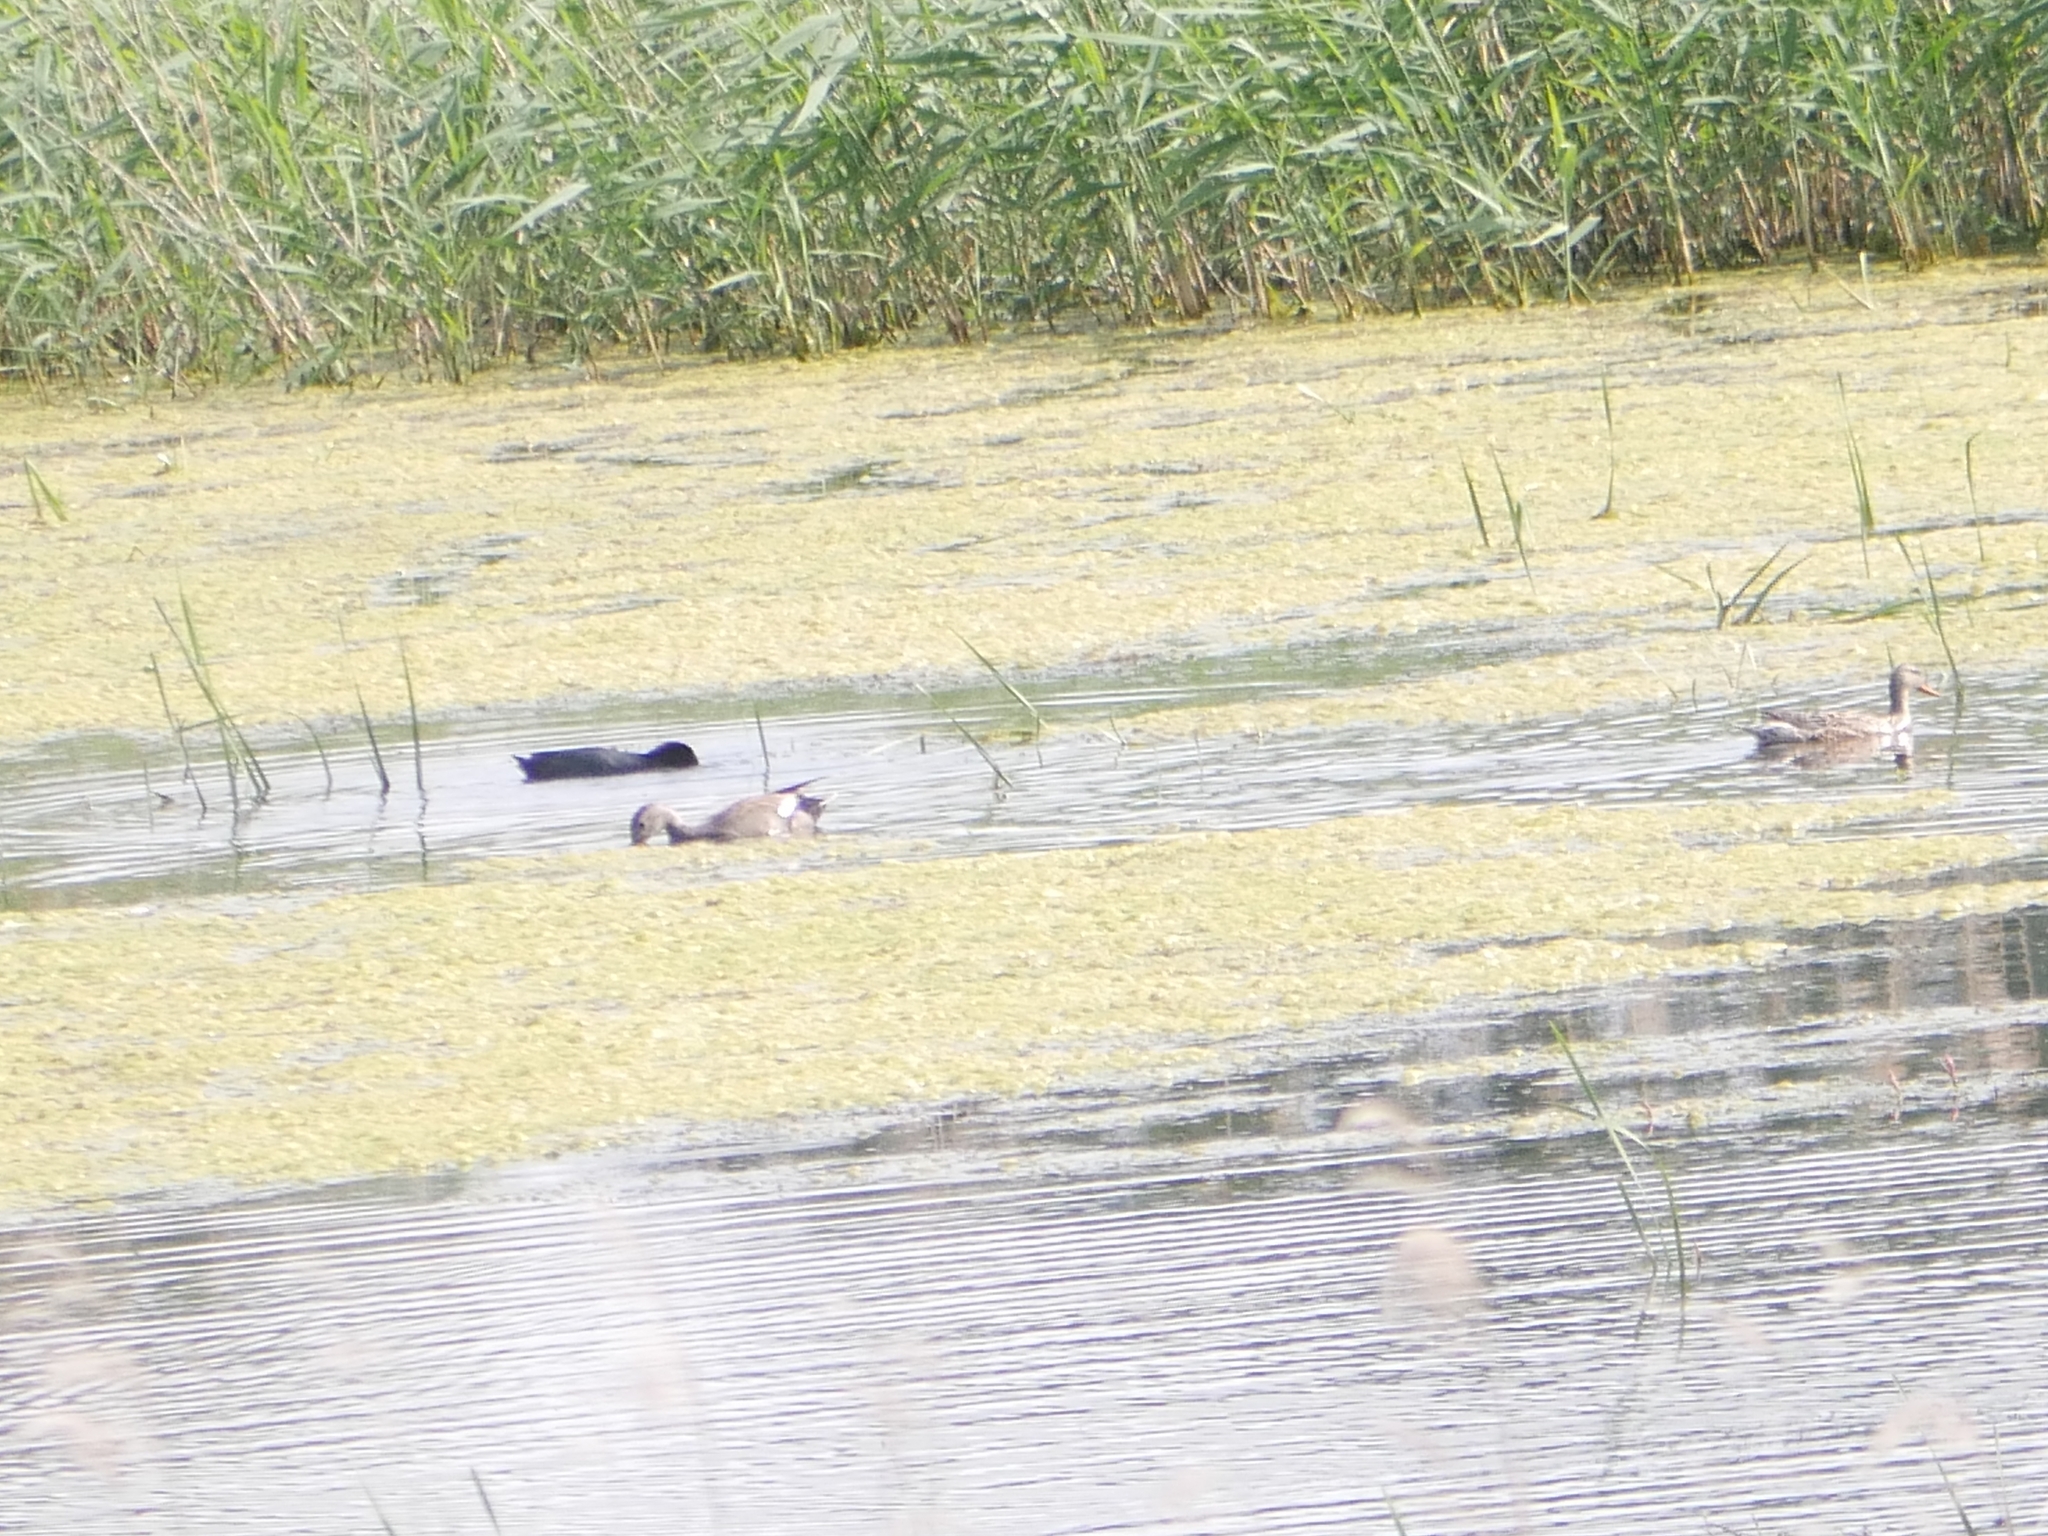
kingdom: Animalia
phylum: Chordata
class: Aves
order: Anseriformes
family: Anatidae
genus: Mareca
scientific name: Mareca strepera
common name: Gadwall
